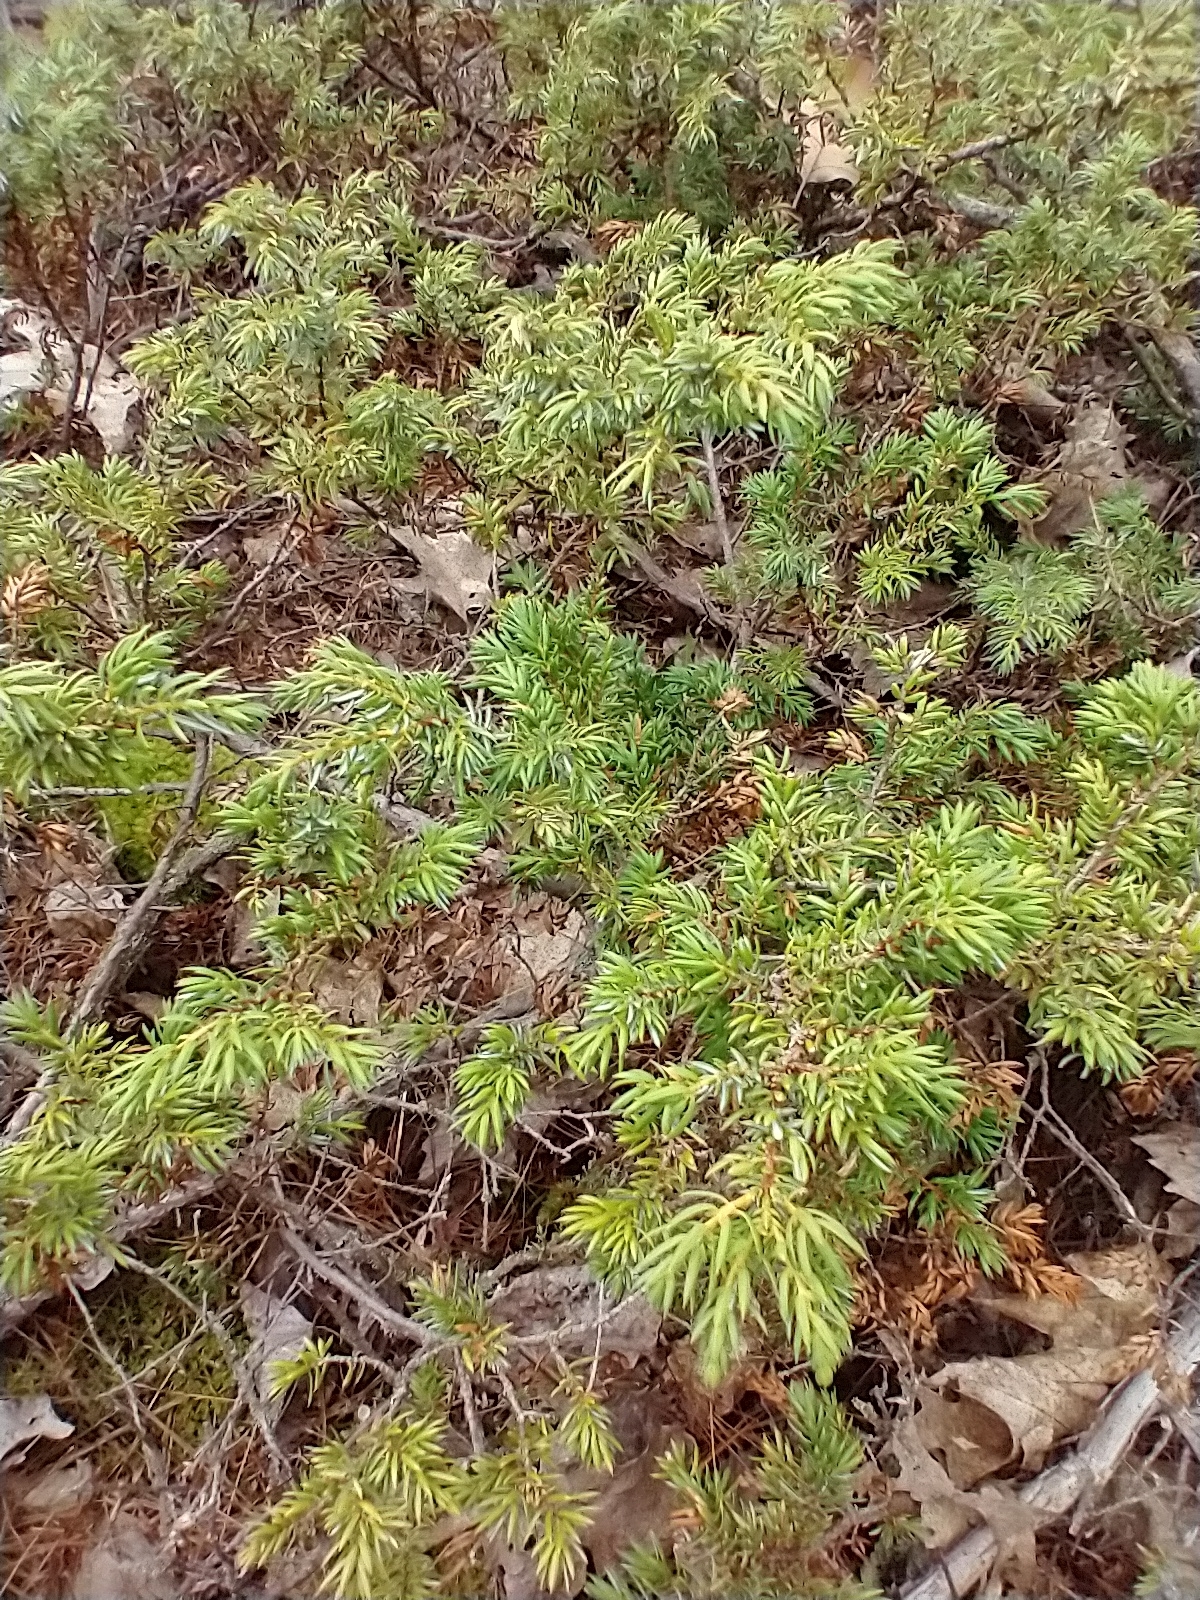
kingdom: Plantae
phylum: Tracheophyta
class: Pinopsida
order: Pinales
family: Cupressaceae
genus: Juniperus
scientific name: Juniperus communis
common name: Common juniper
